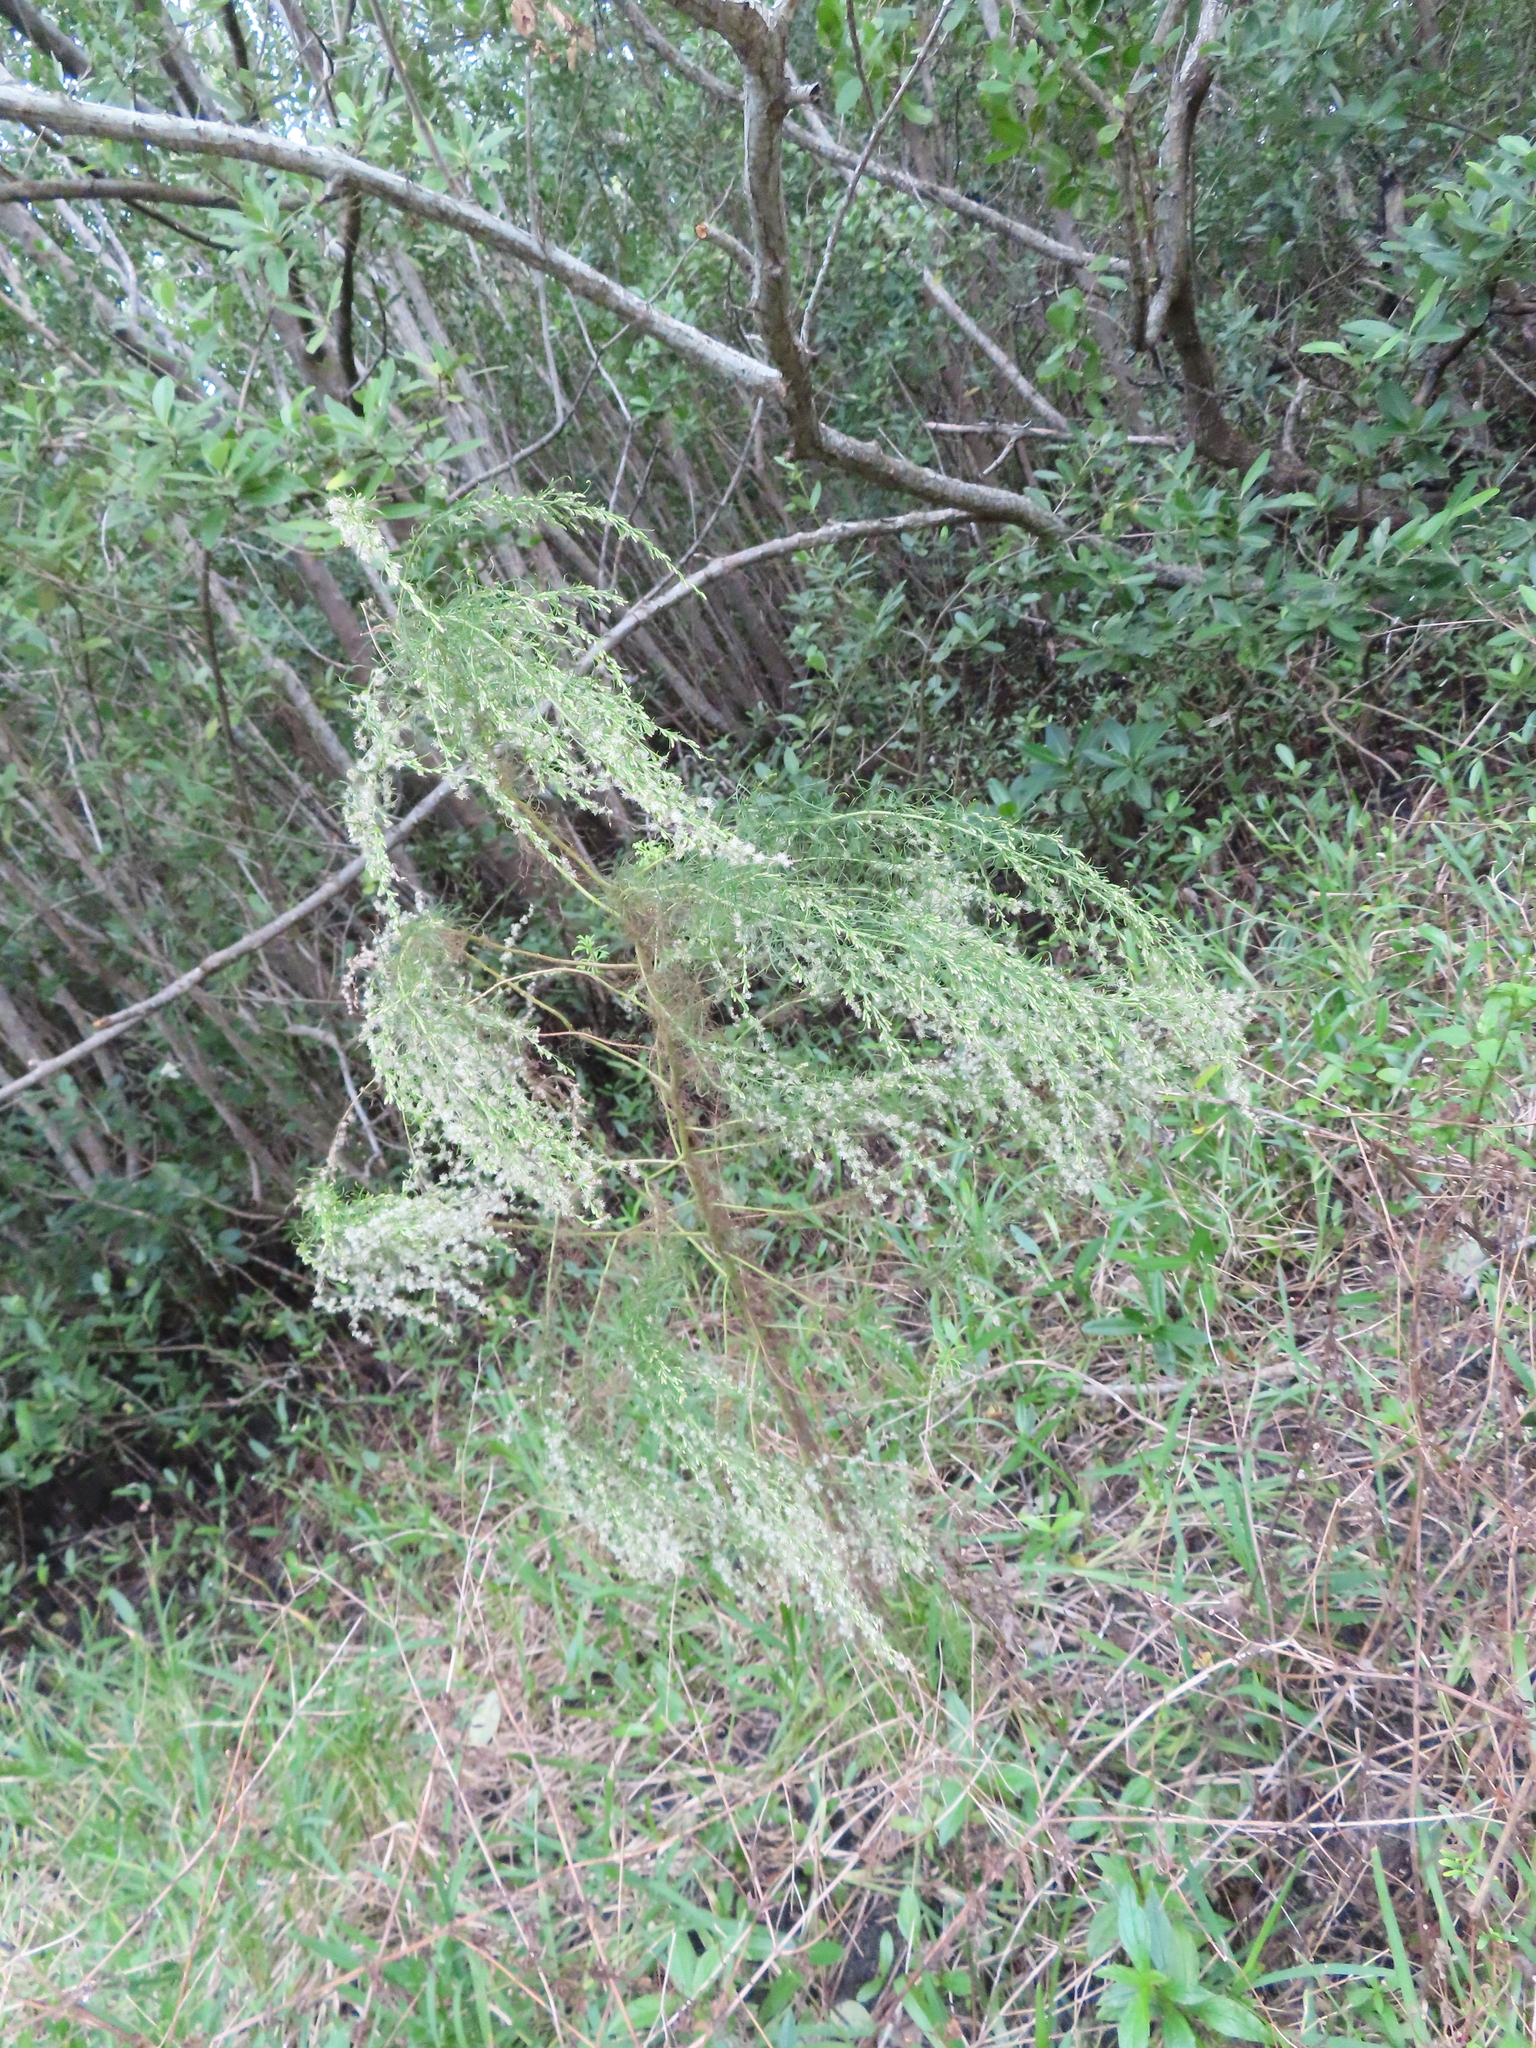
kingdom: Plantae
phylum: Tracheophyta
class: Magnoliopsida
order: Asterales
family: Asteraceae
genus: Eupatorium
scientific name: Eupatorium capillifolium
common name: Dog-fennel
